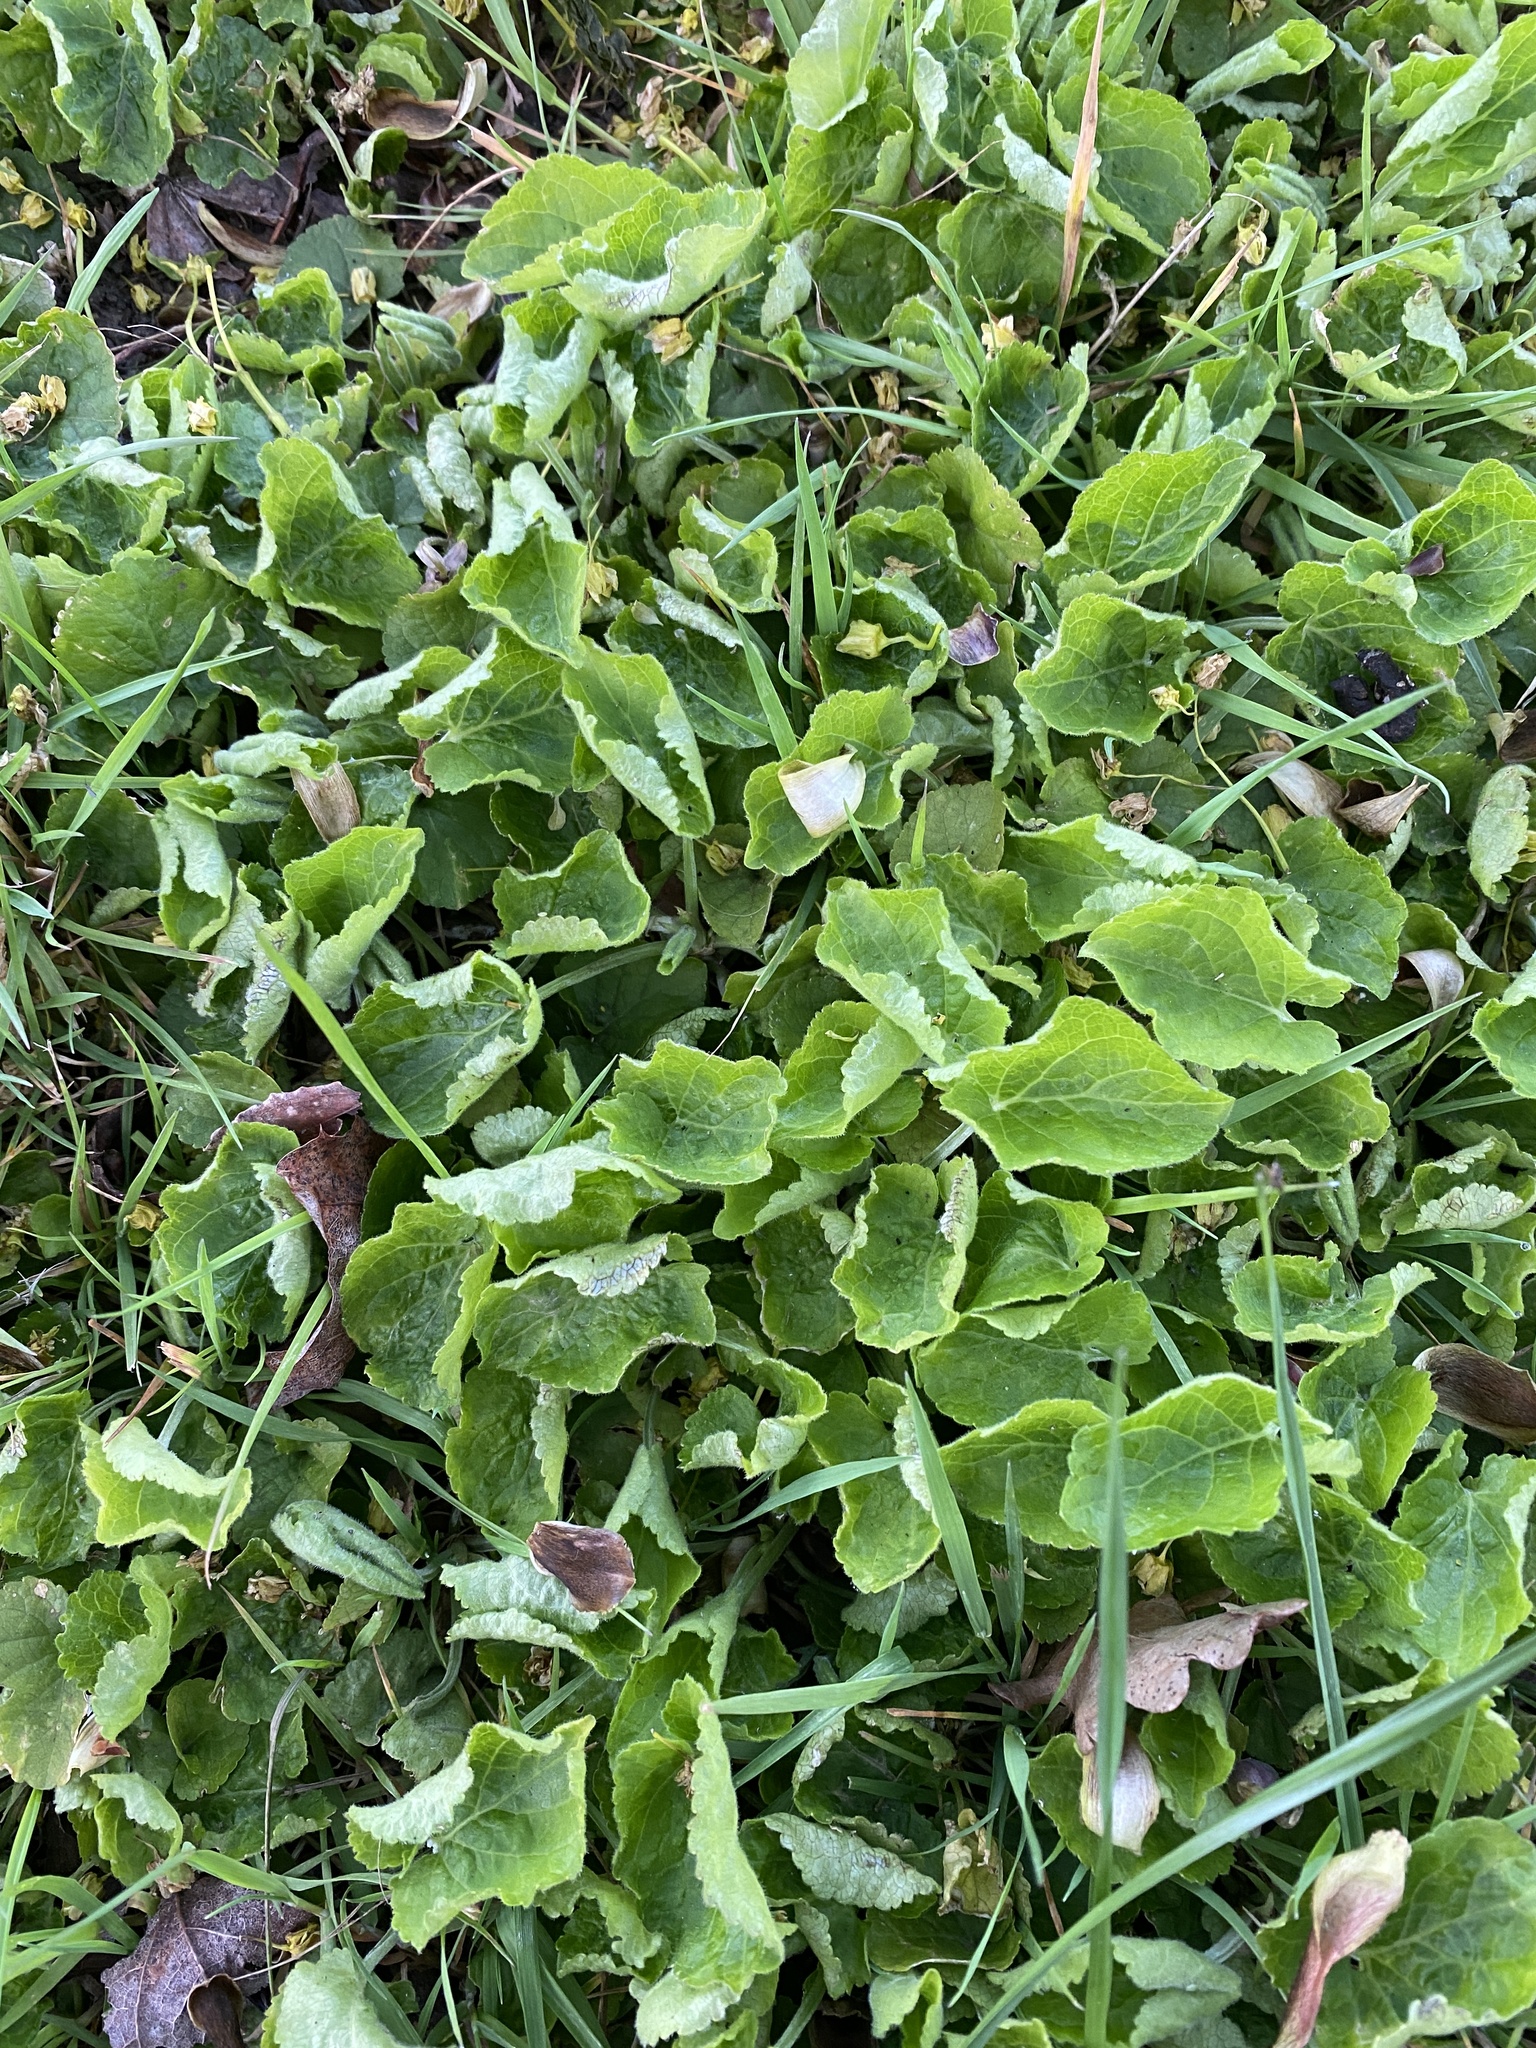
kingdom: Plantae
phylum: Tracheophyta
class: Magnoliopsida
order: Malpighiales
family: Violaceae
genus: Viola
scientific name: Viola odorata
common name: Sweet violet
